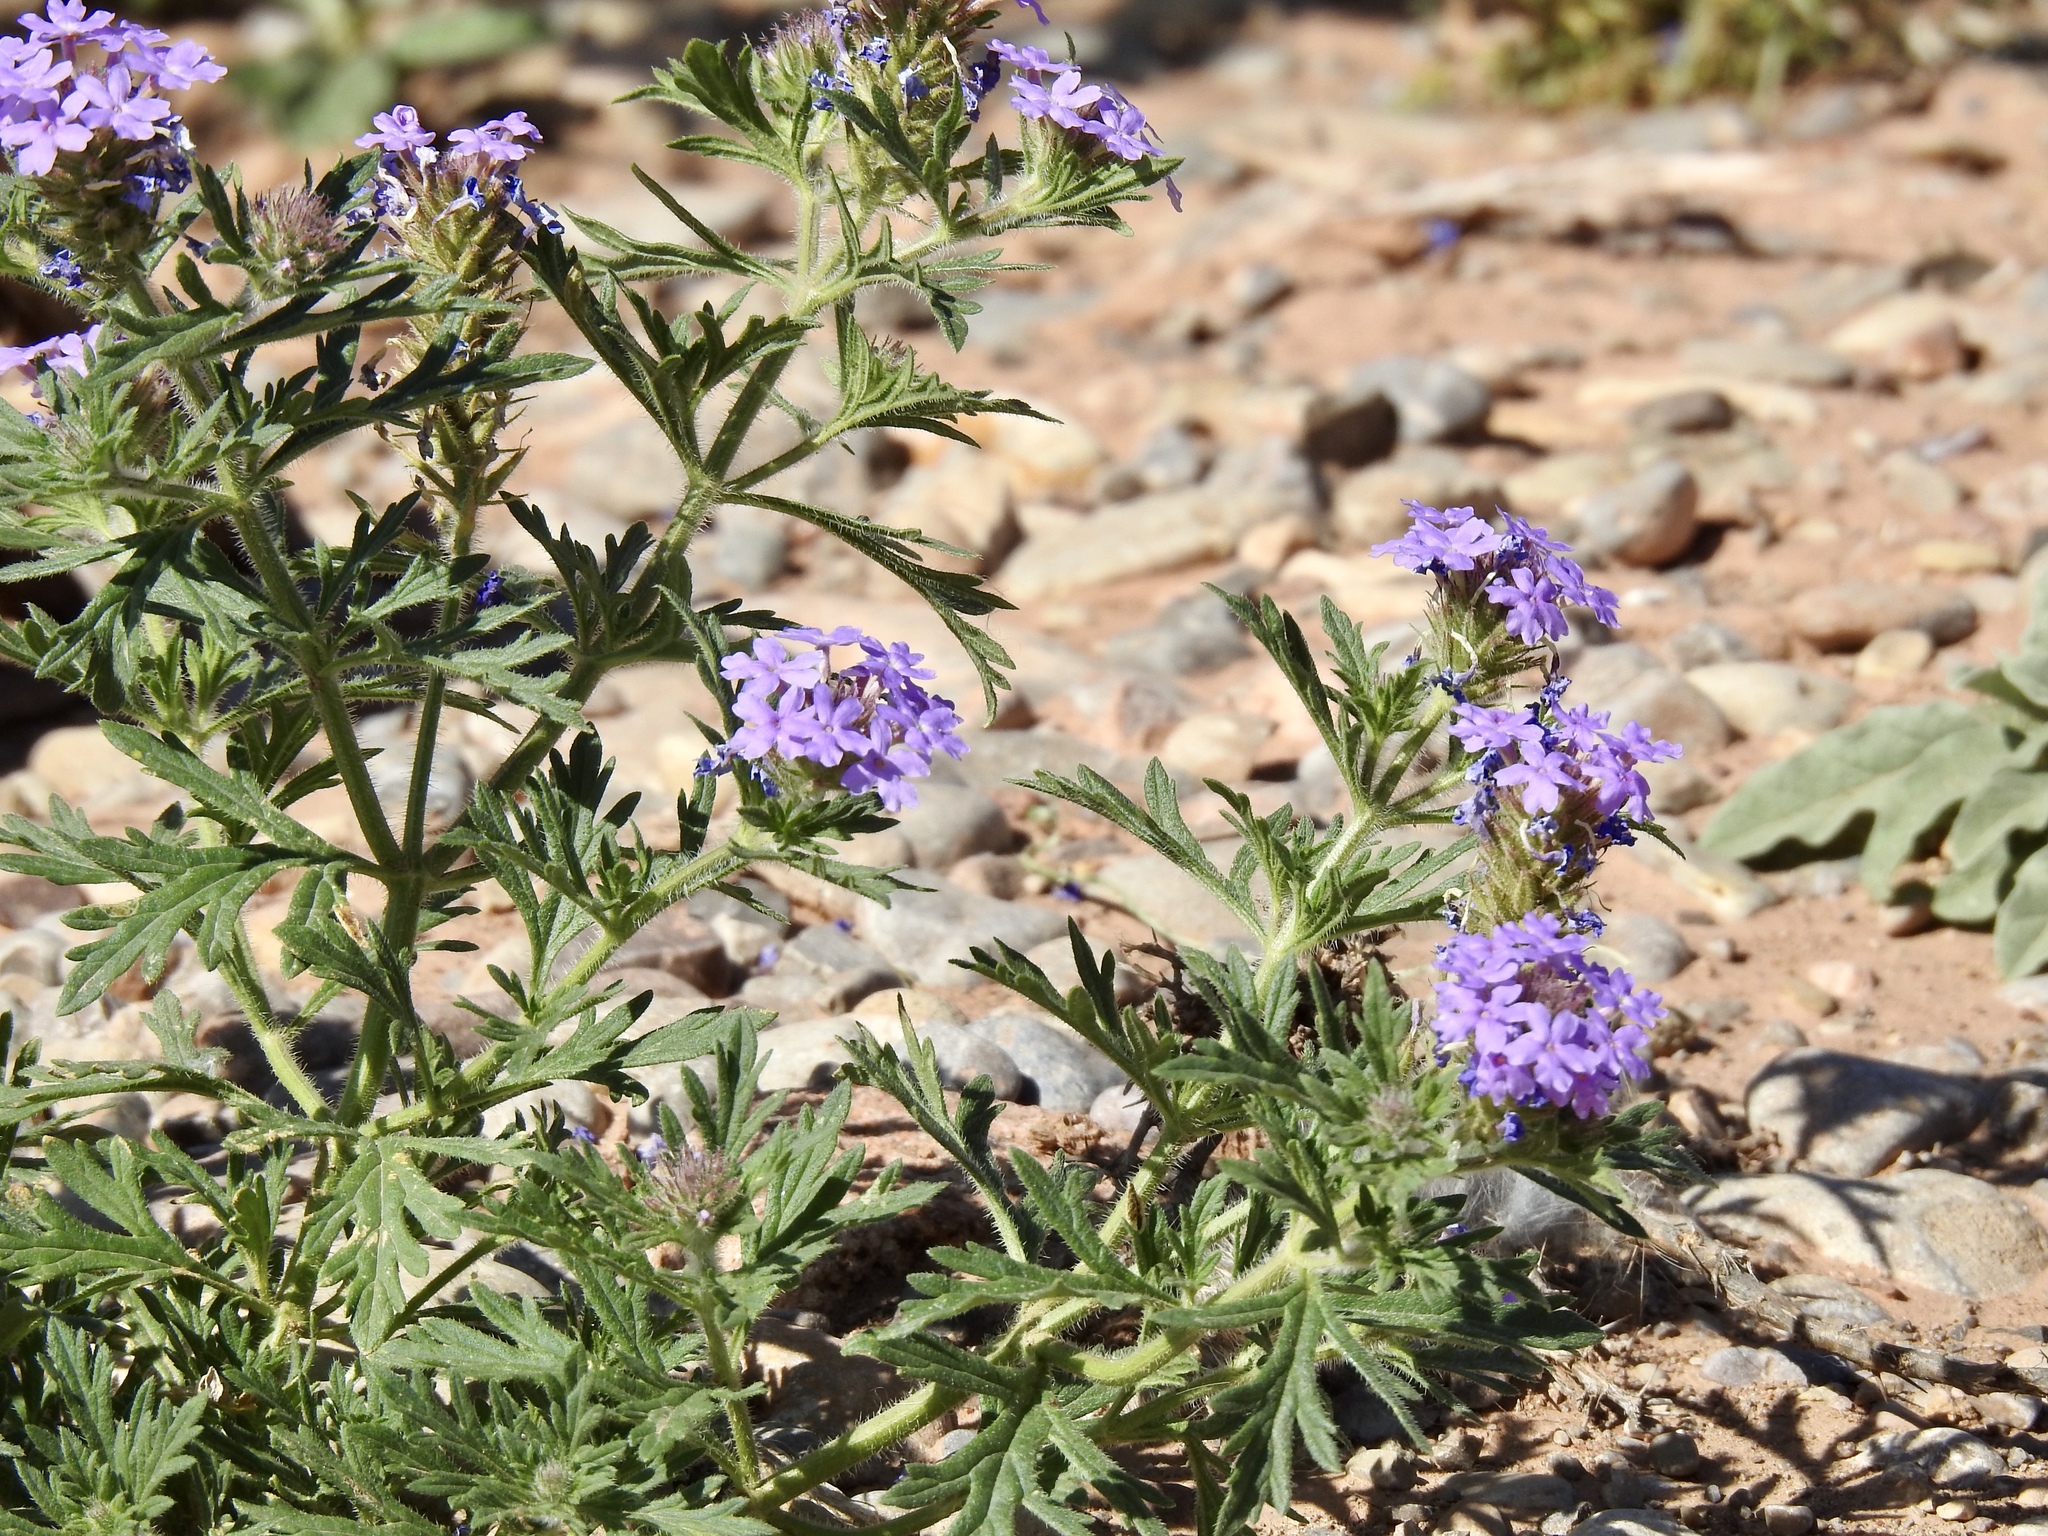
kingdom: Plantae
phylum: Tracheophyta
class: Magnoliopsida
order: Lamiales
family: Verbenaceae
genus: Verbena
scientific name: Verbena bipinnatifida
